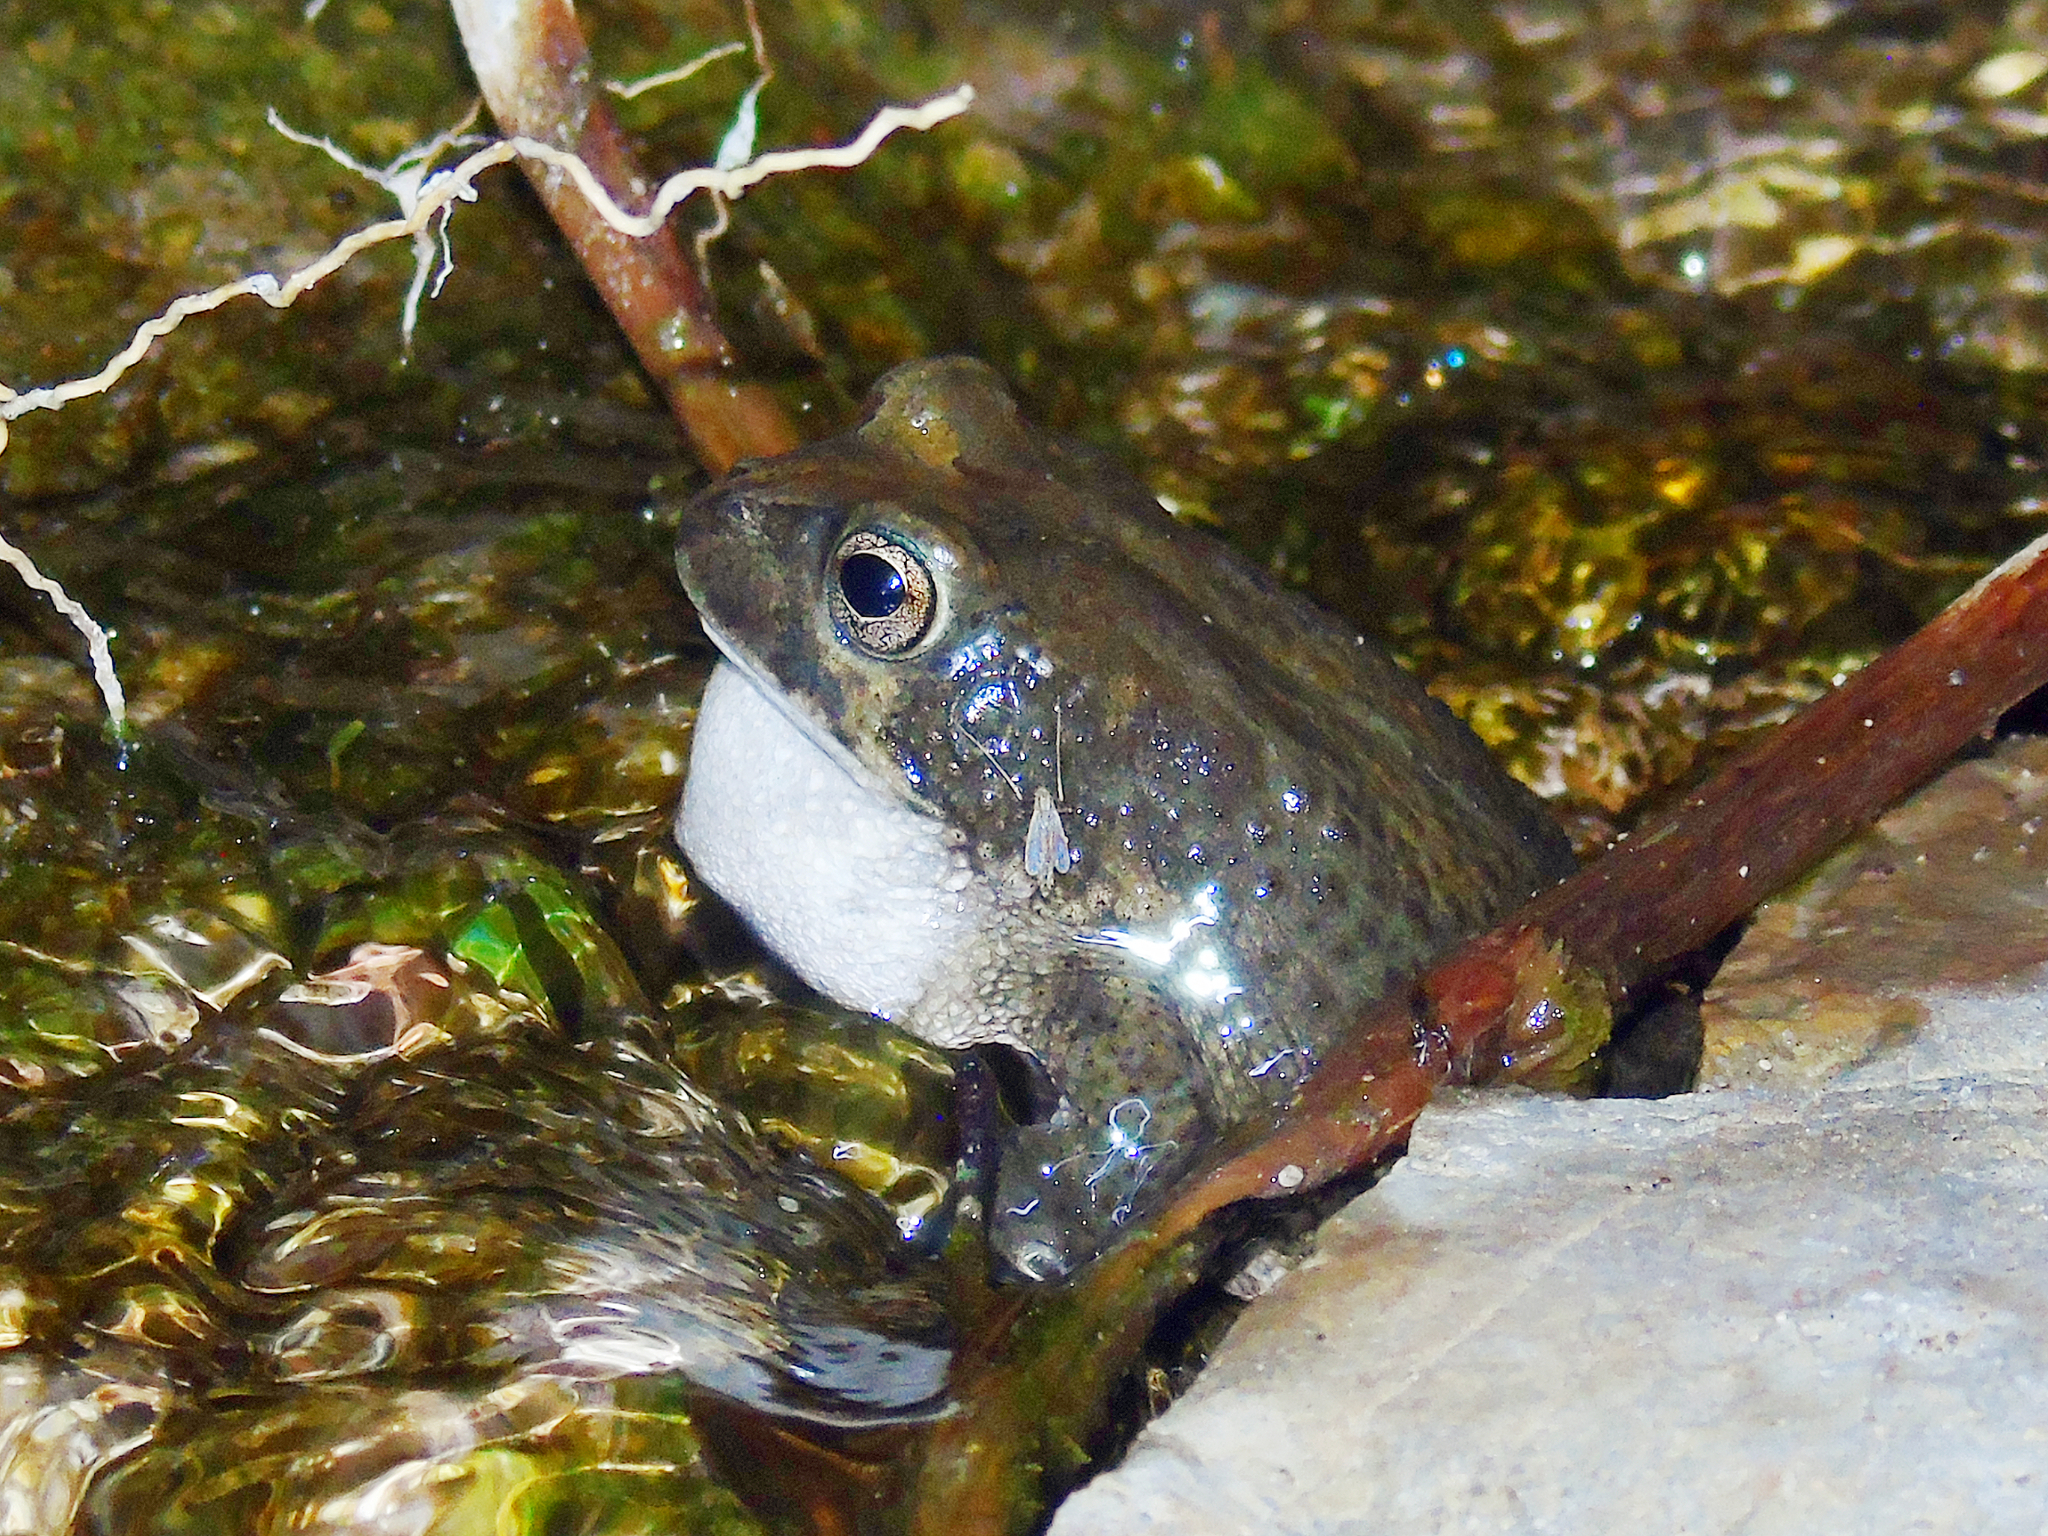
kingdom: Animalia
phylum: Chordata
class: Amphibia
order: Anura
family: Bufonidae
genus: Sclerophrys
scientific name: Sclerophrys arabica
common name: Arabian toad
